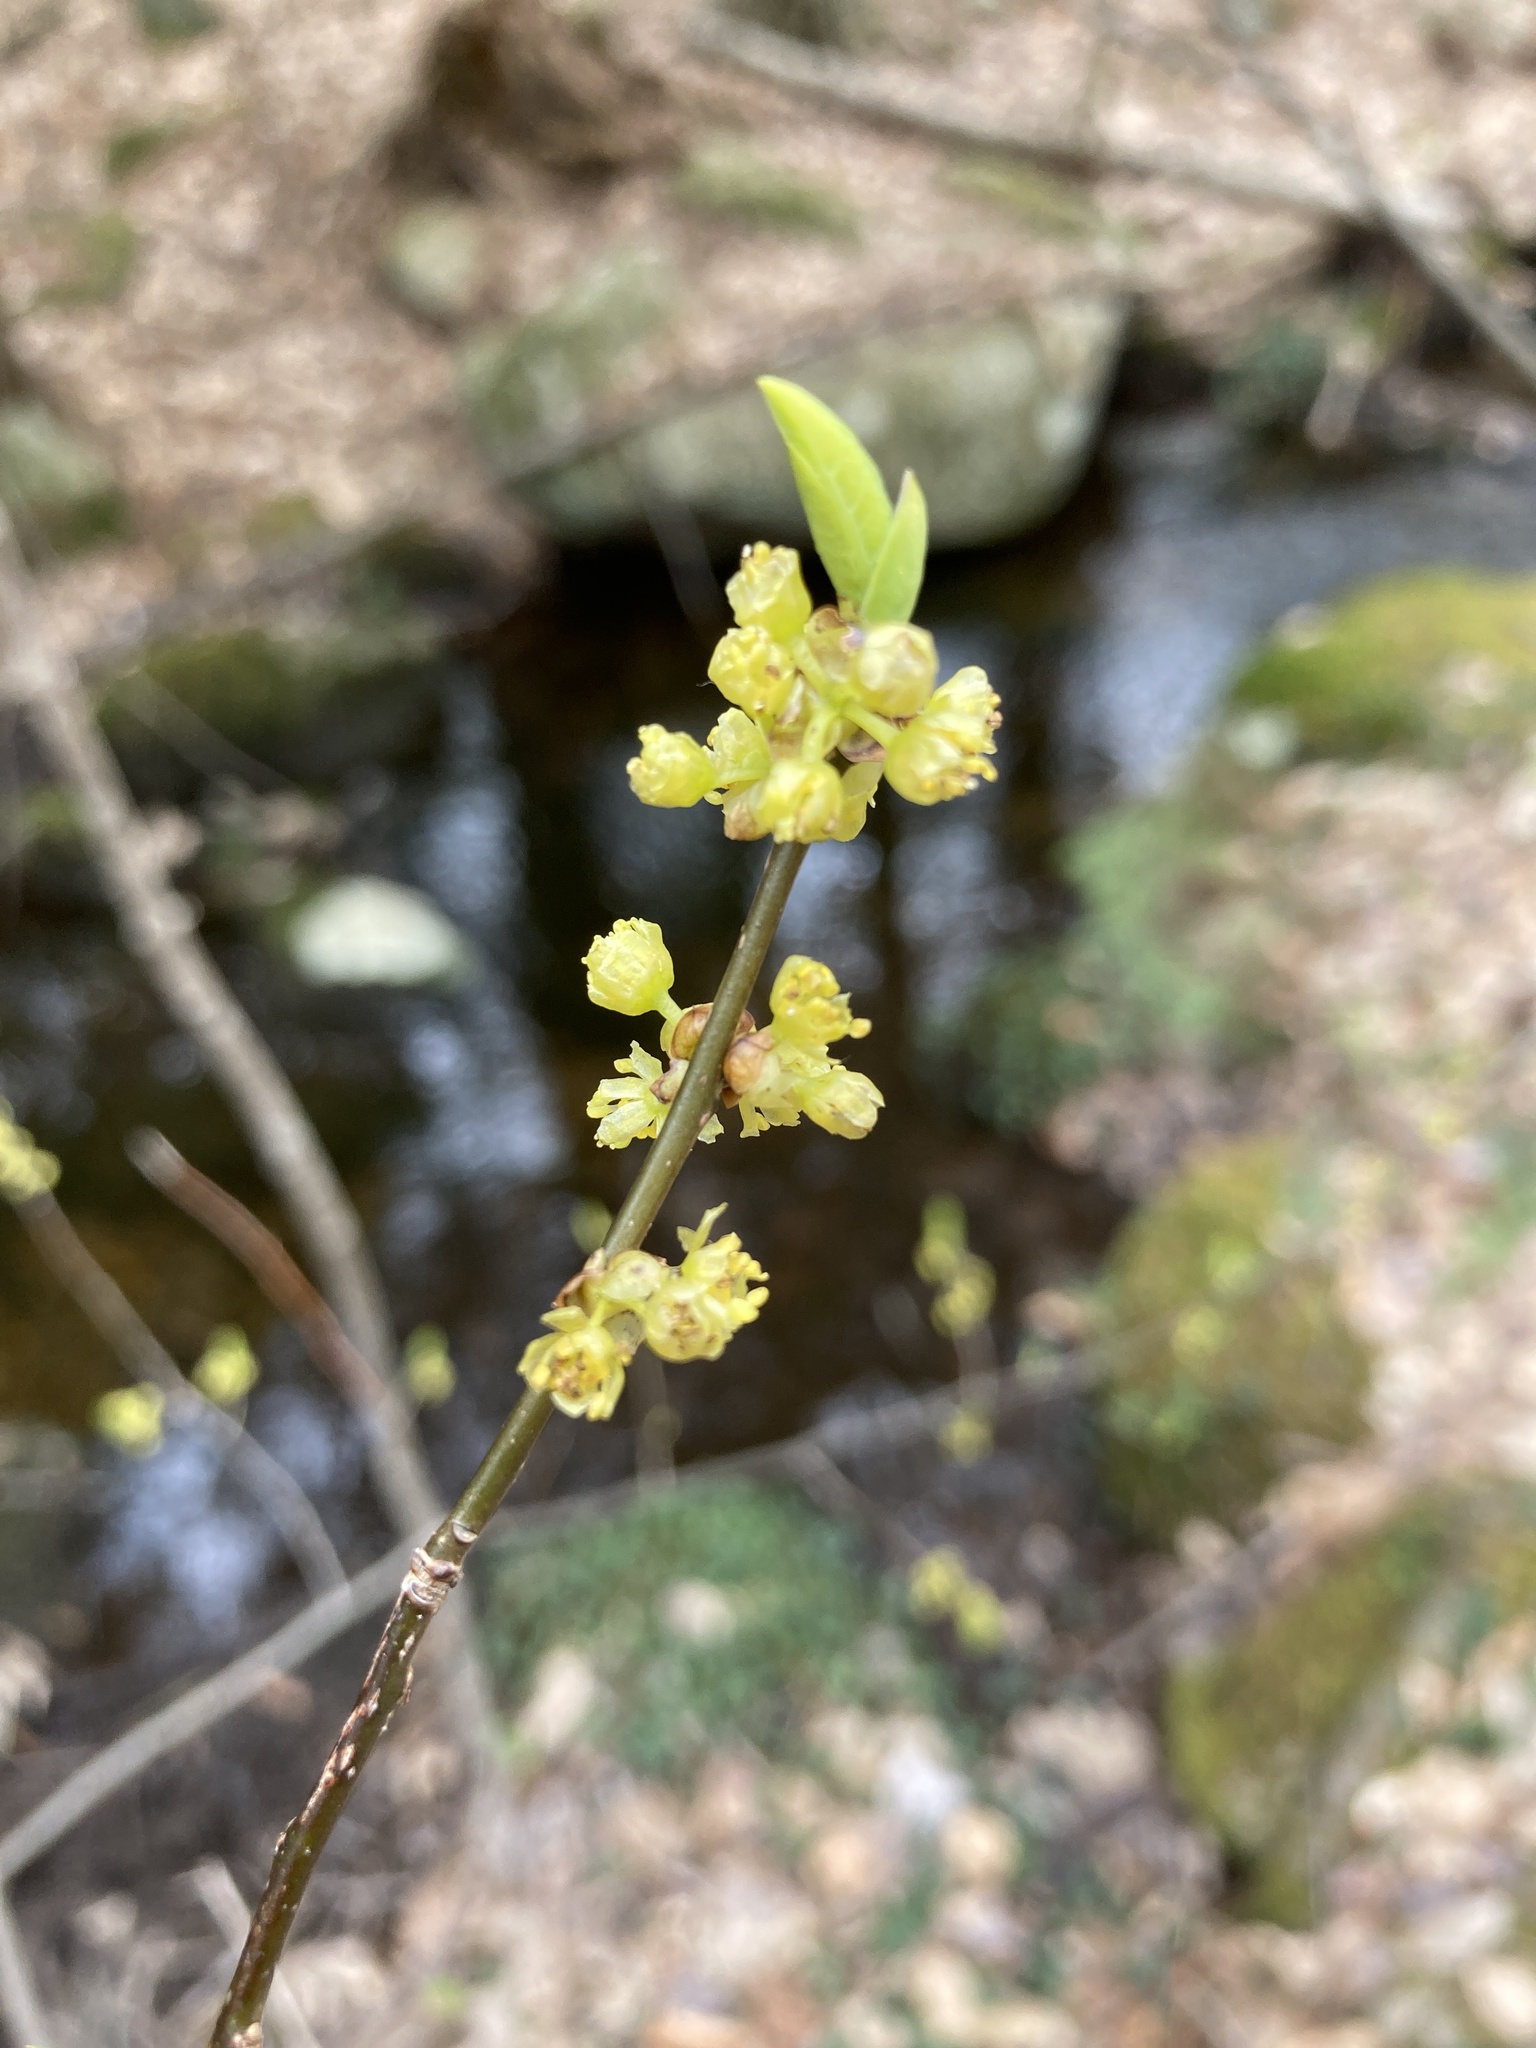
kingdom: Plantae
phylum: Tracheophyta
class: Magnoliopsida
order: Laurales
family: Lauraceae
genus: Lindera
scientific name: Lindera benzoin
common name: Spicebush
